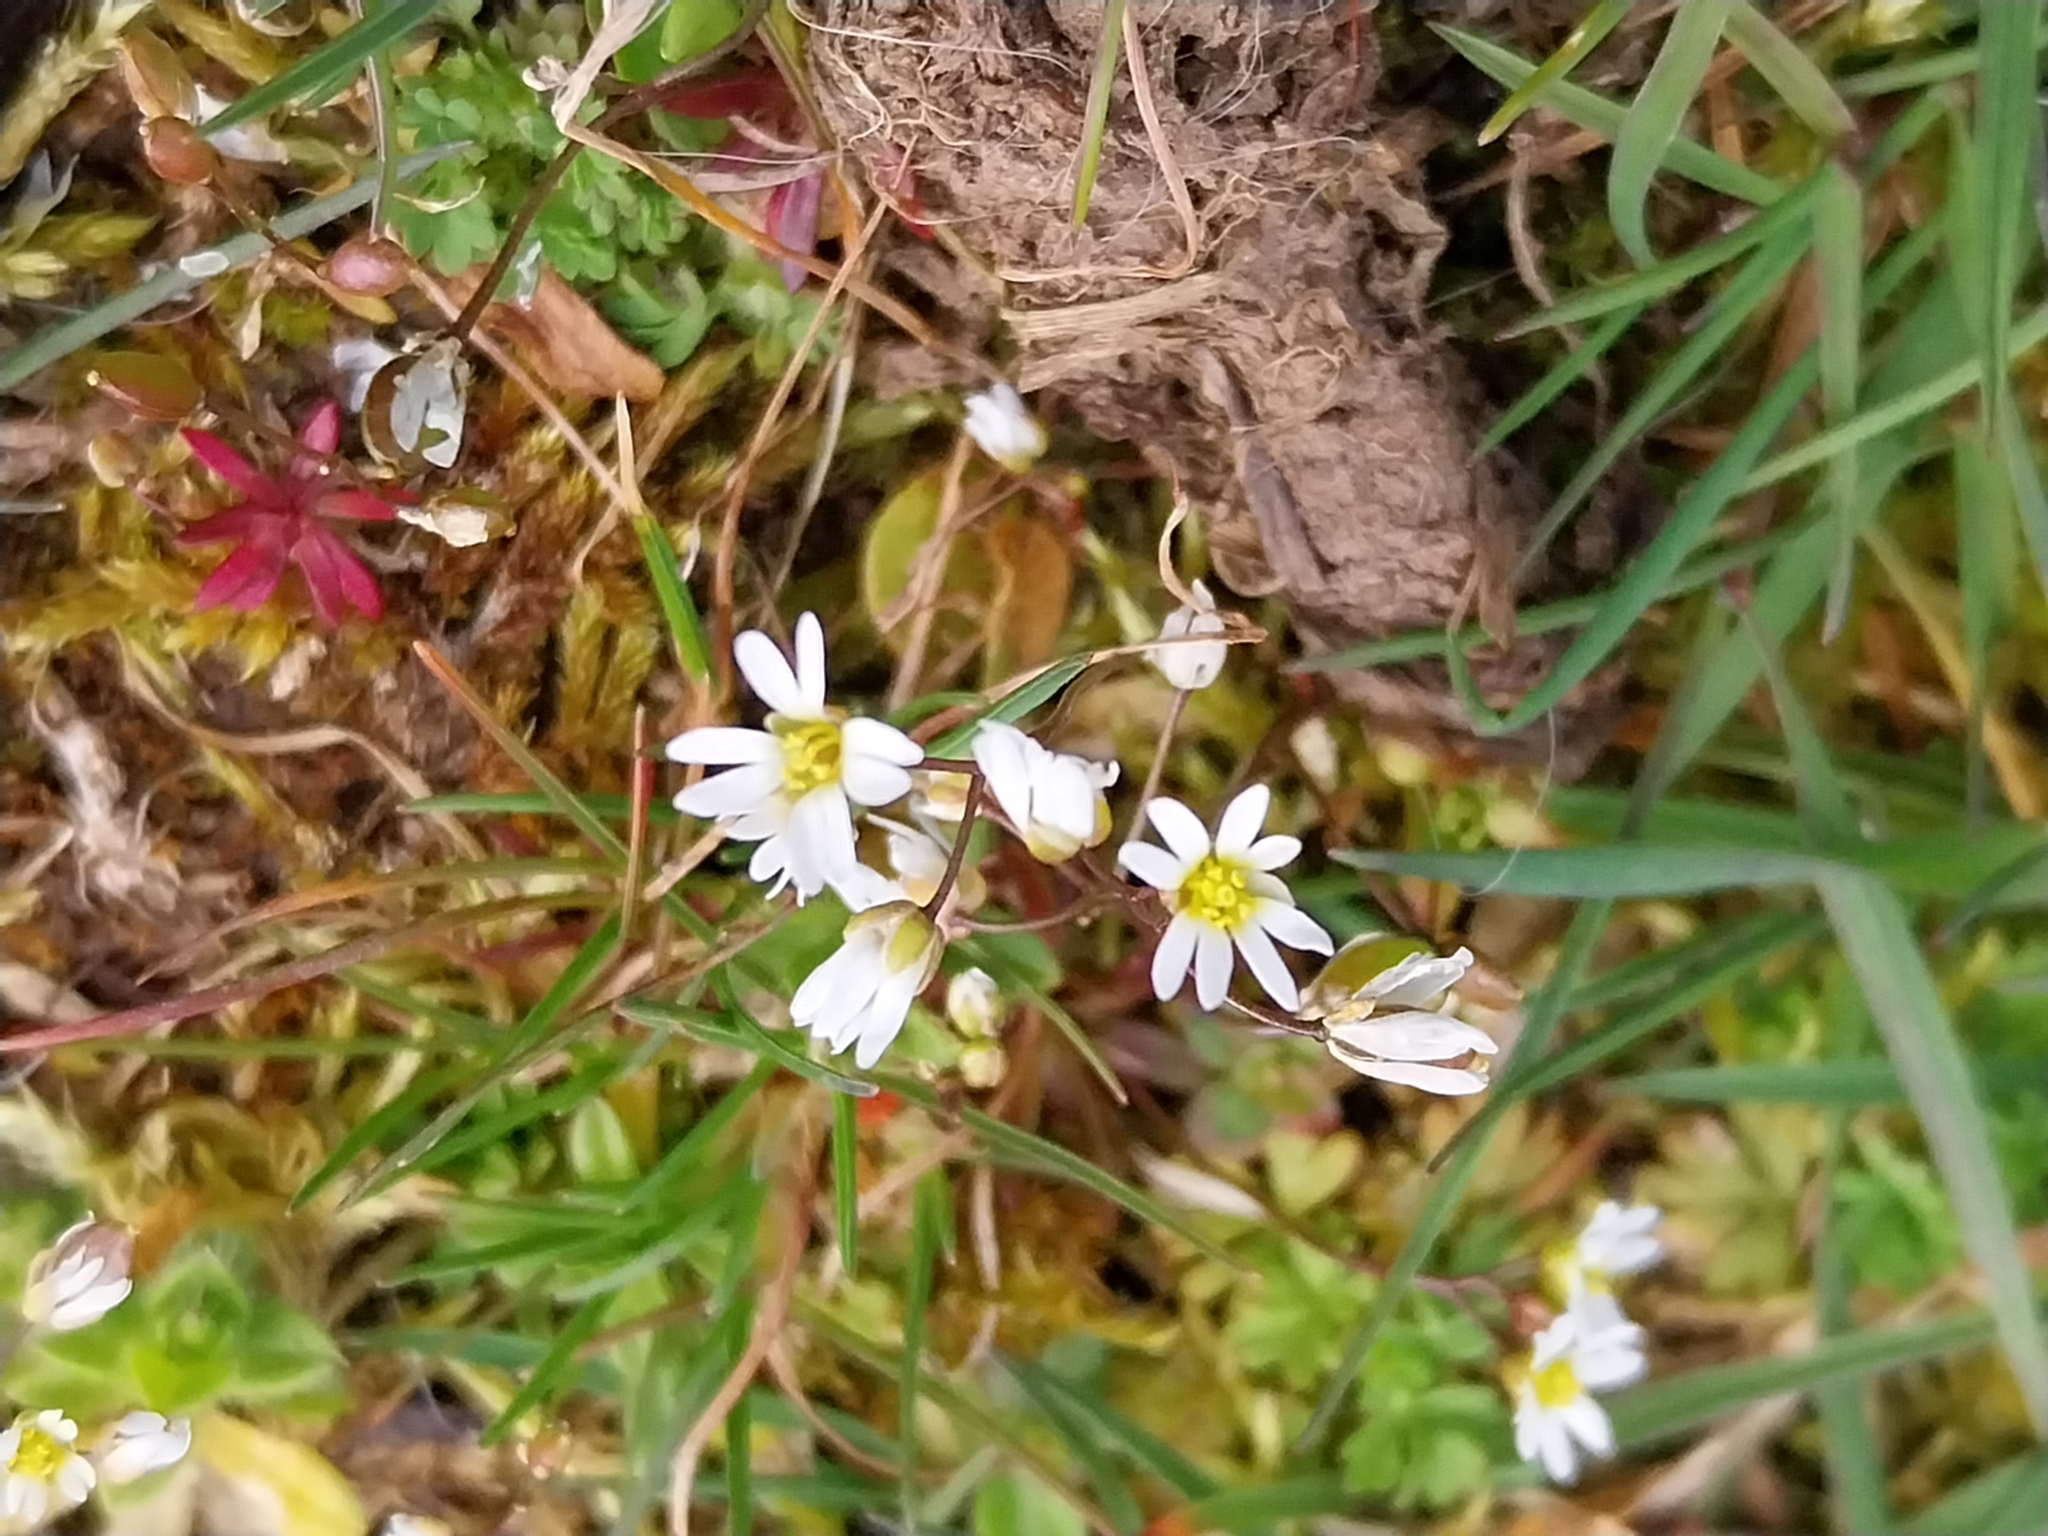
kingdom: Plantae
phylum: Tracheophyta
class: Magnoliopsida
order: Brassicales
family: Brassicaceae
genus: Draba
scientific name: Draba verna
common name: Spring draba
